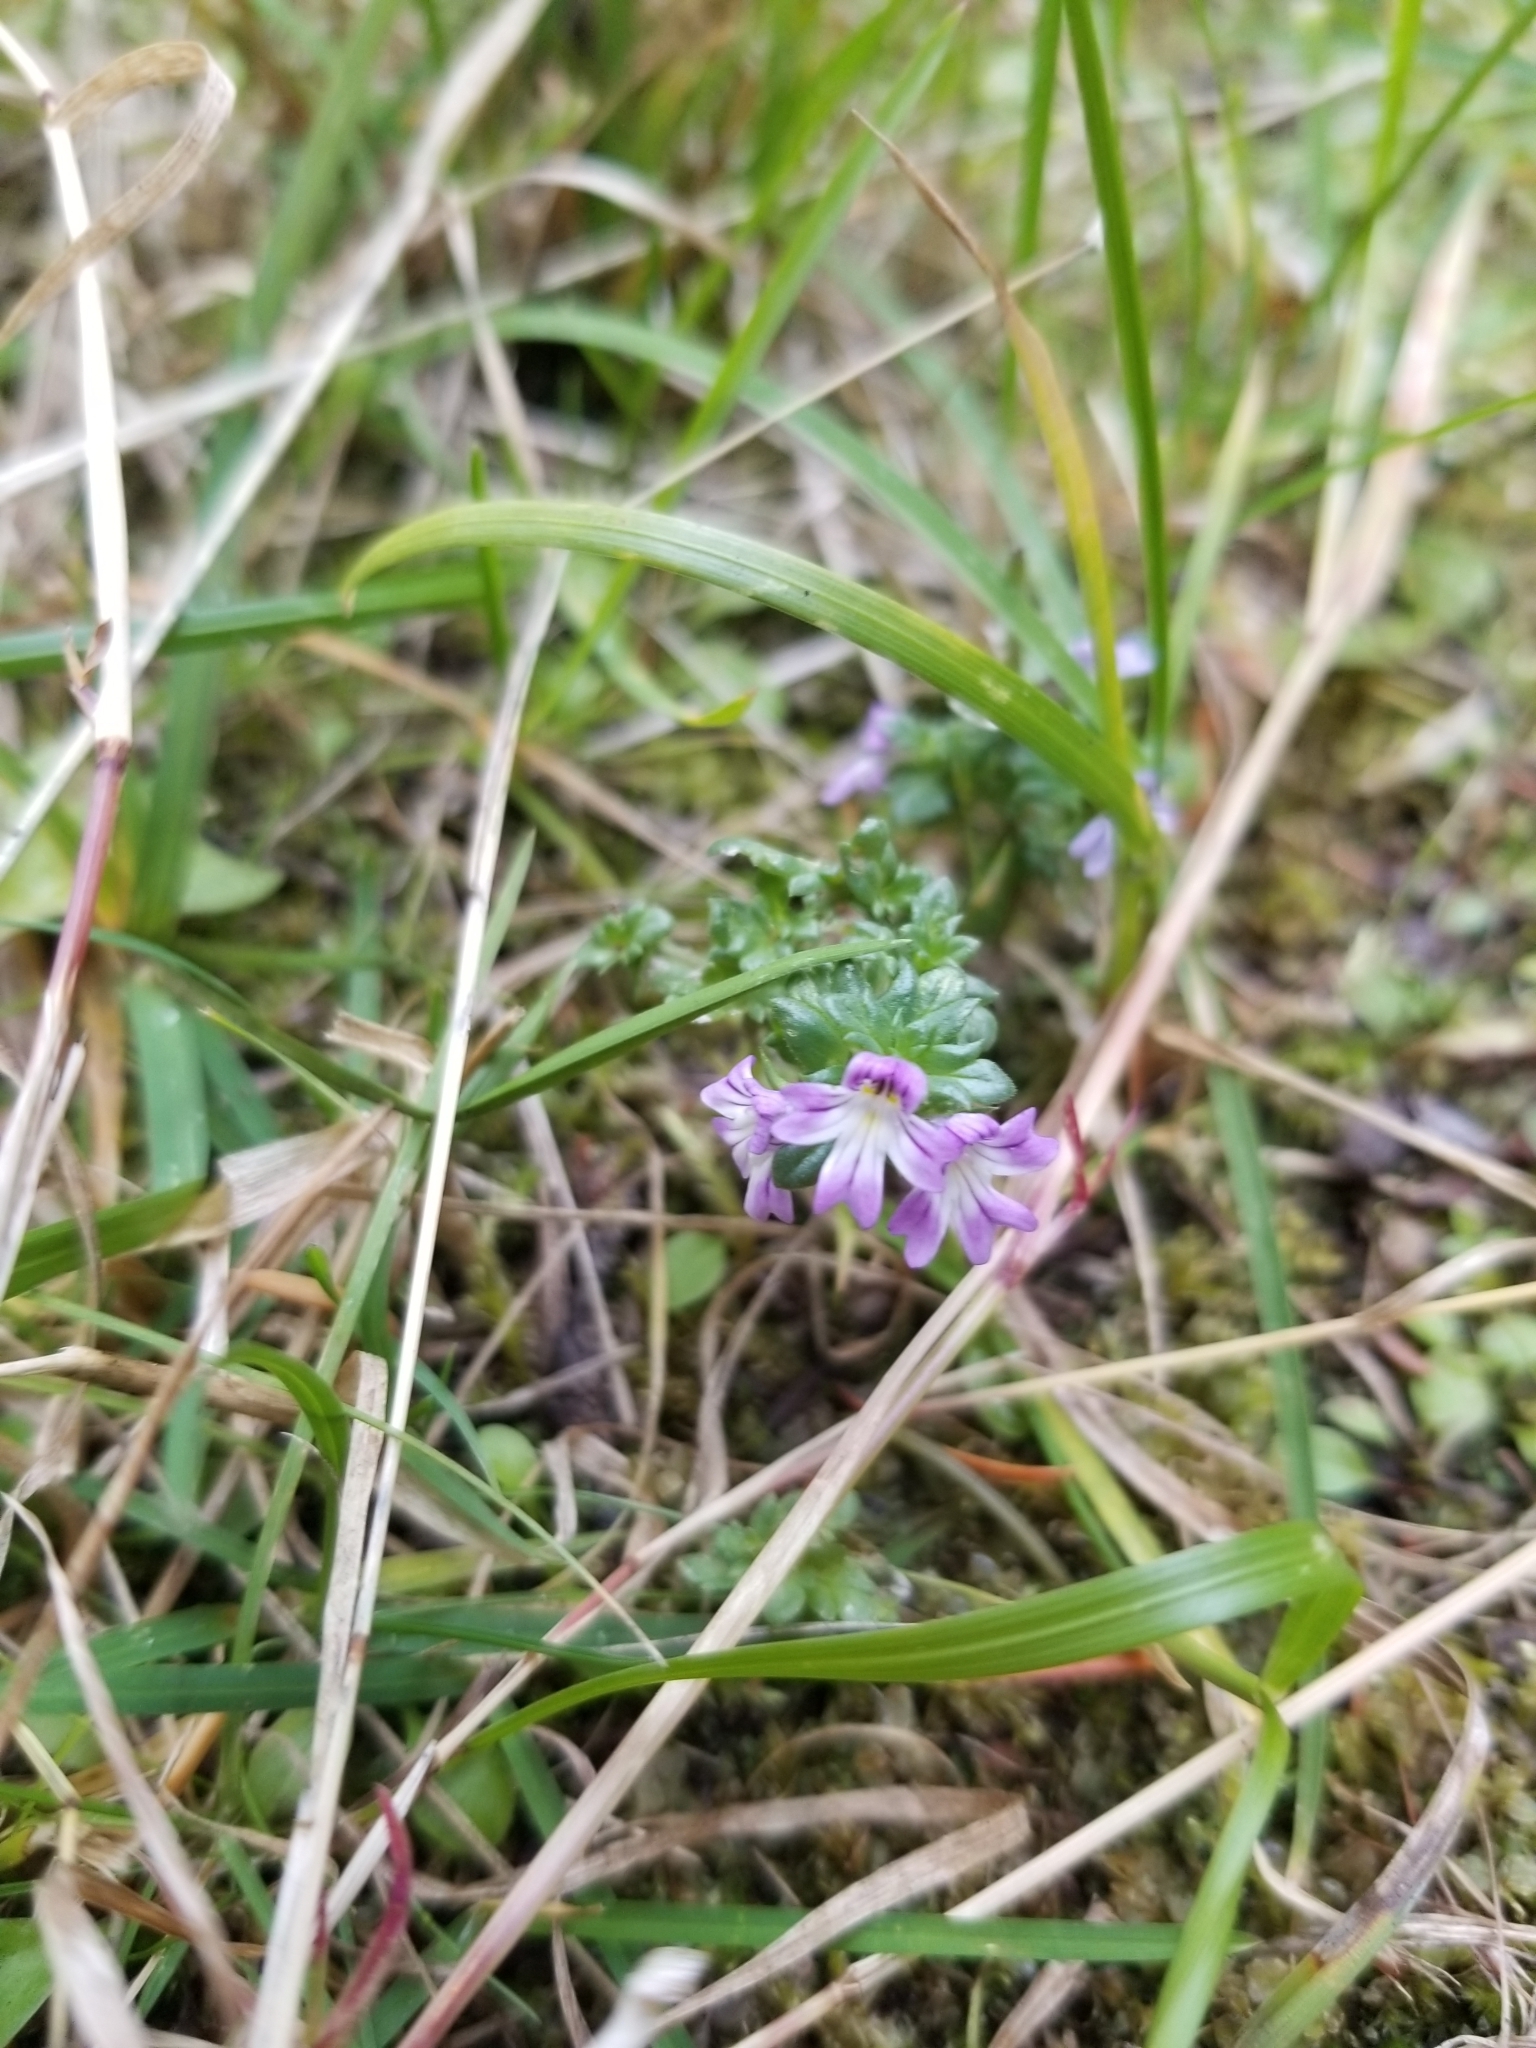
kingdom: Plantae
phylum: Tracheophyta
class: Magnoliopsida
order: Lamiales
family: Orobanchaceae
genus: Euphrasia
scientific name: Euphrasia nemorosa
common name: Common eyebright
